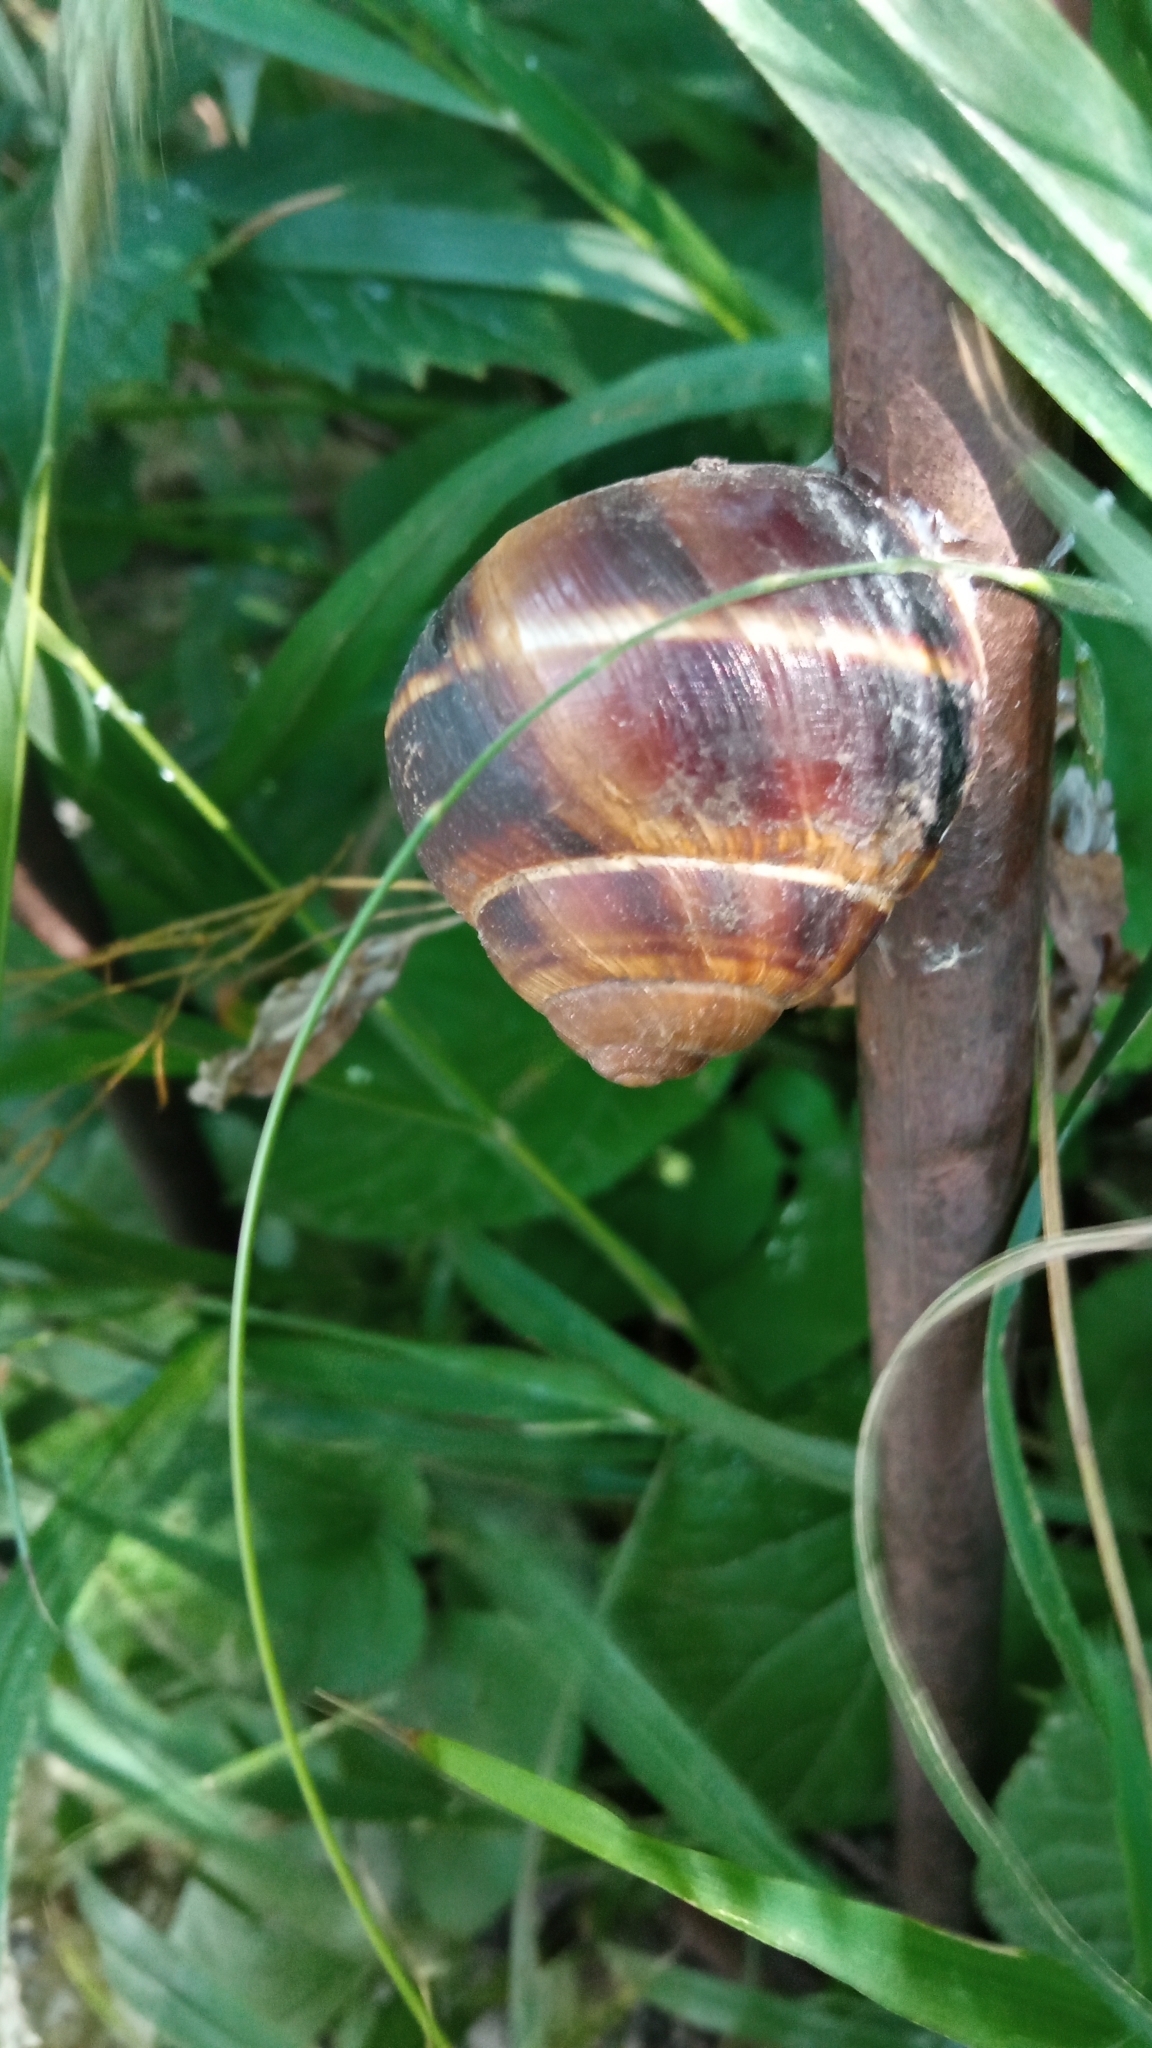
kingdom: Animalia
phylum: Mollusca
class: Gastropoda
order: Stylommatophora
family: Helicidae
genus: Helix
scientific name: Helix lucorum
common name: Turkish snail
